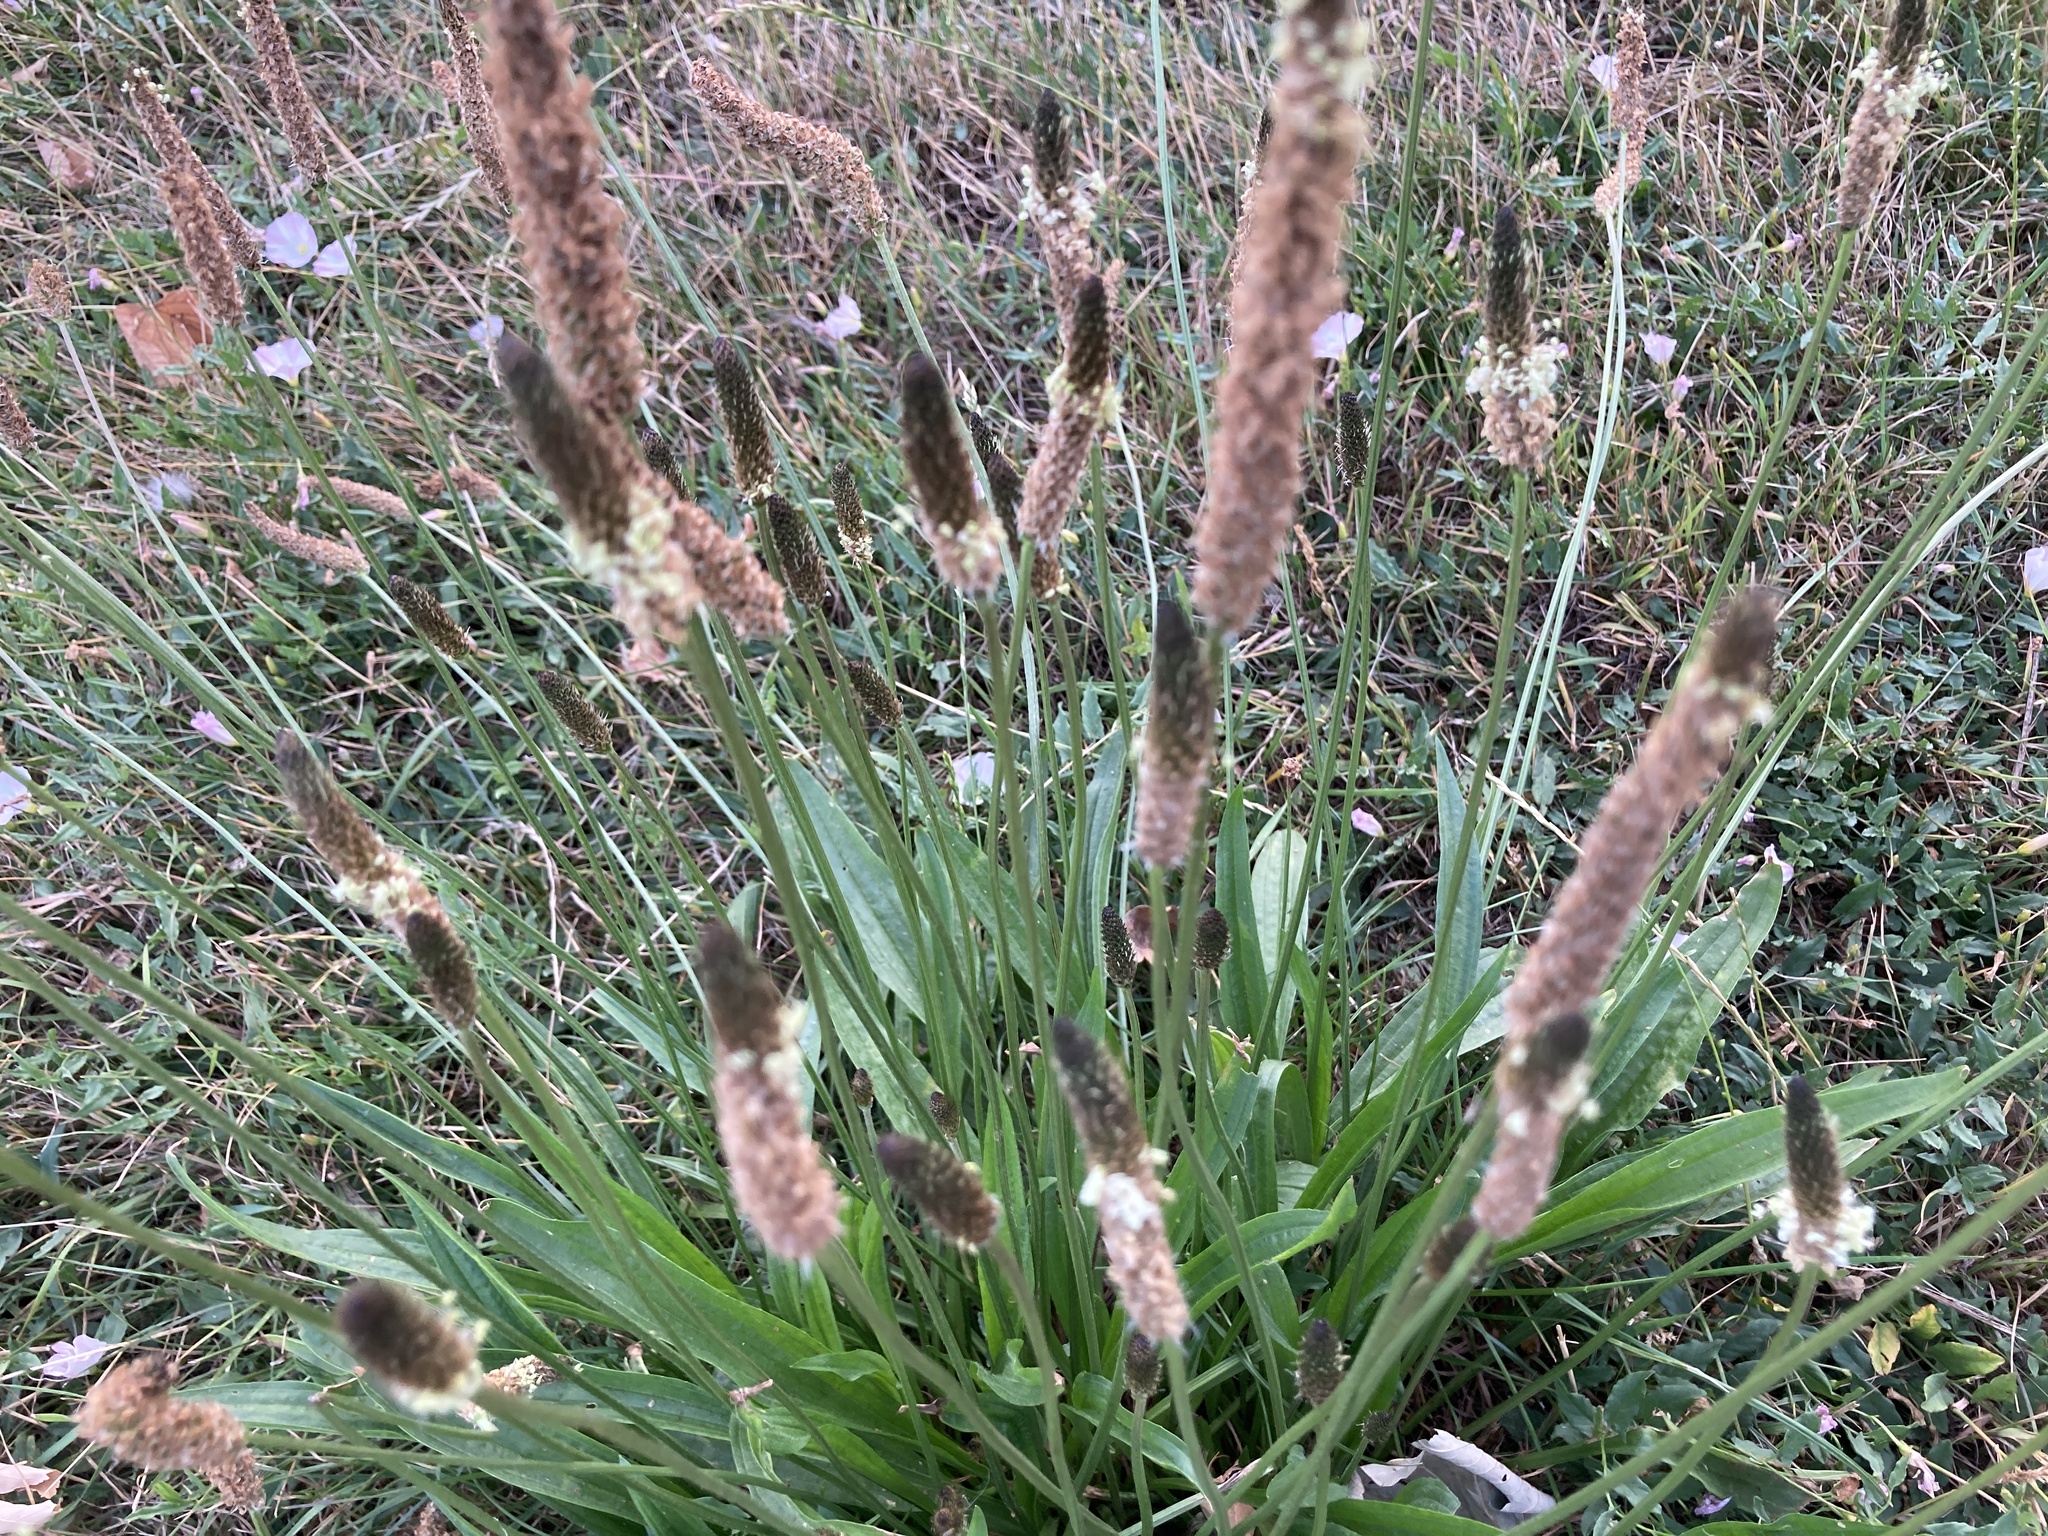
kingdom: Plantae
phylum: Tracheophyta
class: Magnoliopsida
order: Lamiales
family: Plantaginaceae
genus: Plantago
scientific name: Plantago lanceolata
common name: Ribwort plantain
